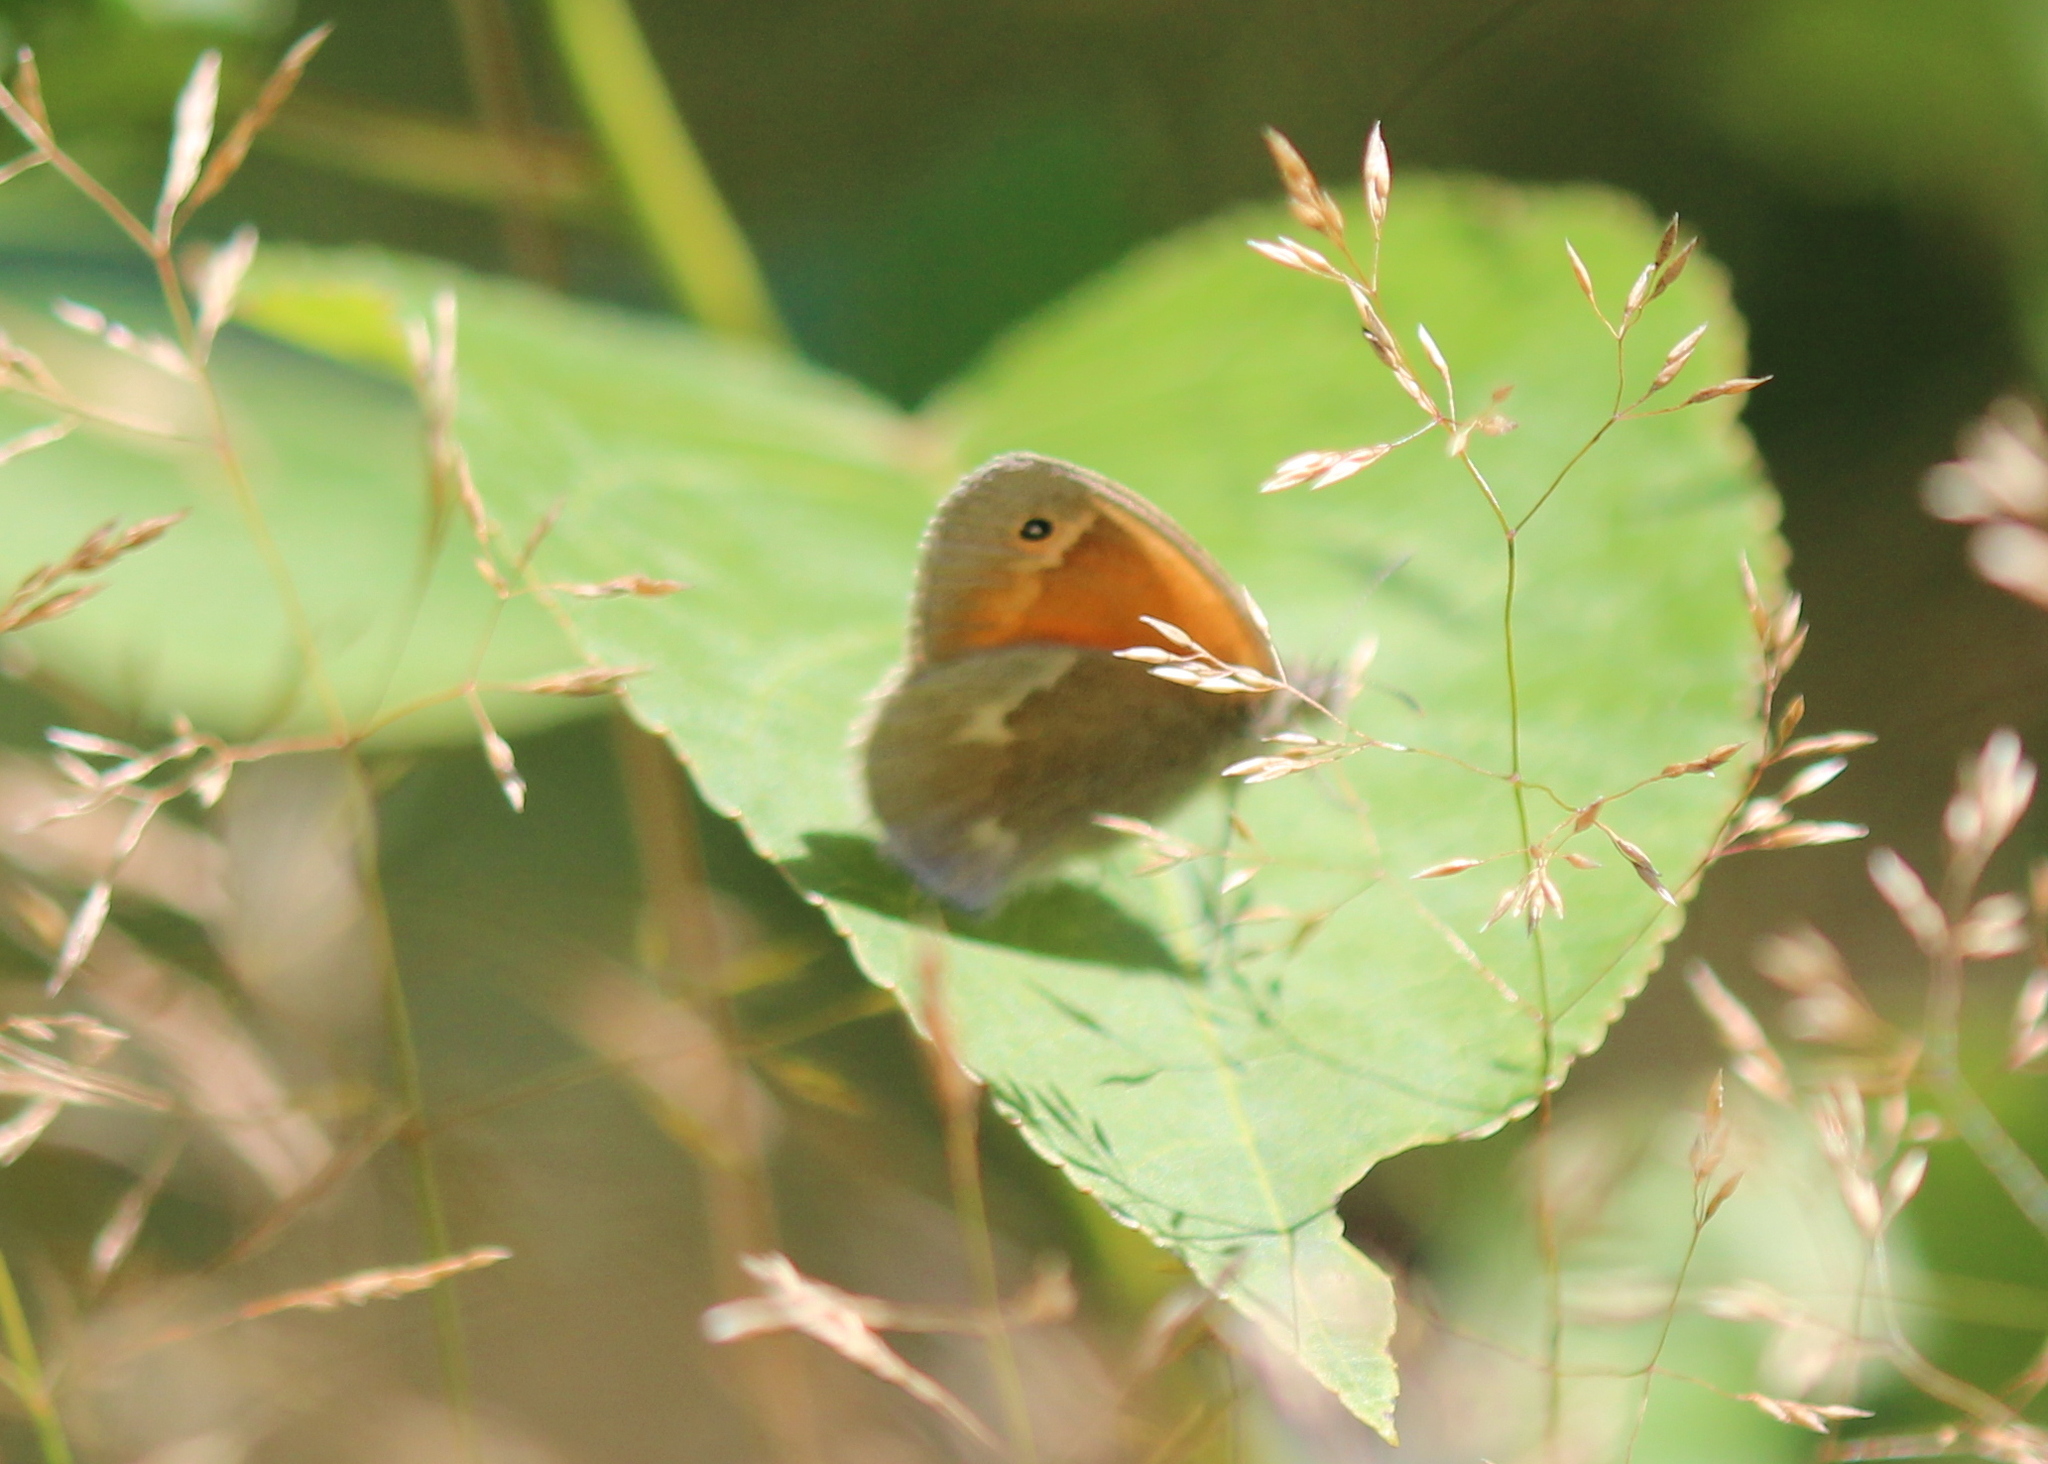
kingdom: Animalia
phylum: Arthropoda
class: Insecta
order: Lepidoptera
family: Nymphalidae
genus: Coenonympha
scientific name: Coenonympha california
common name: Common ringlet
